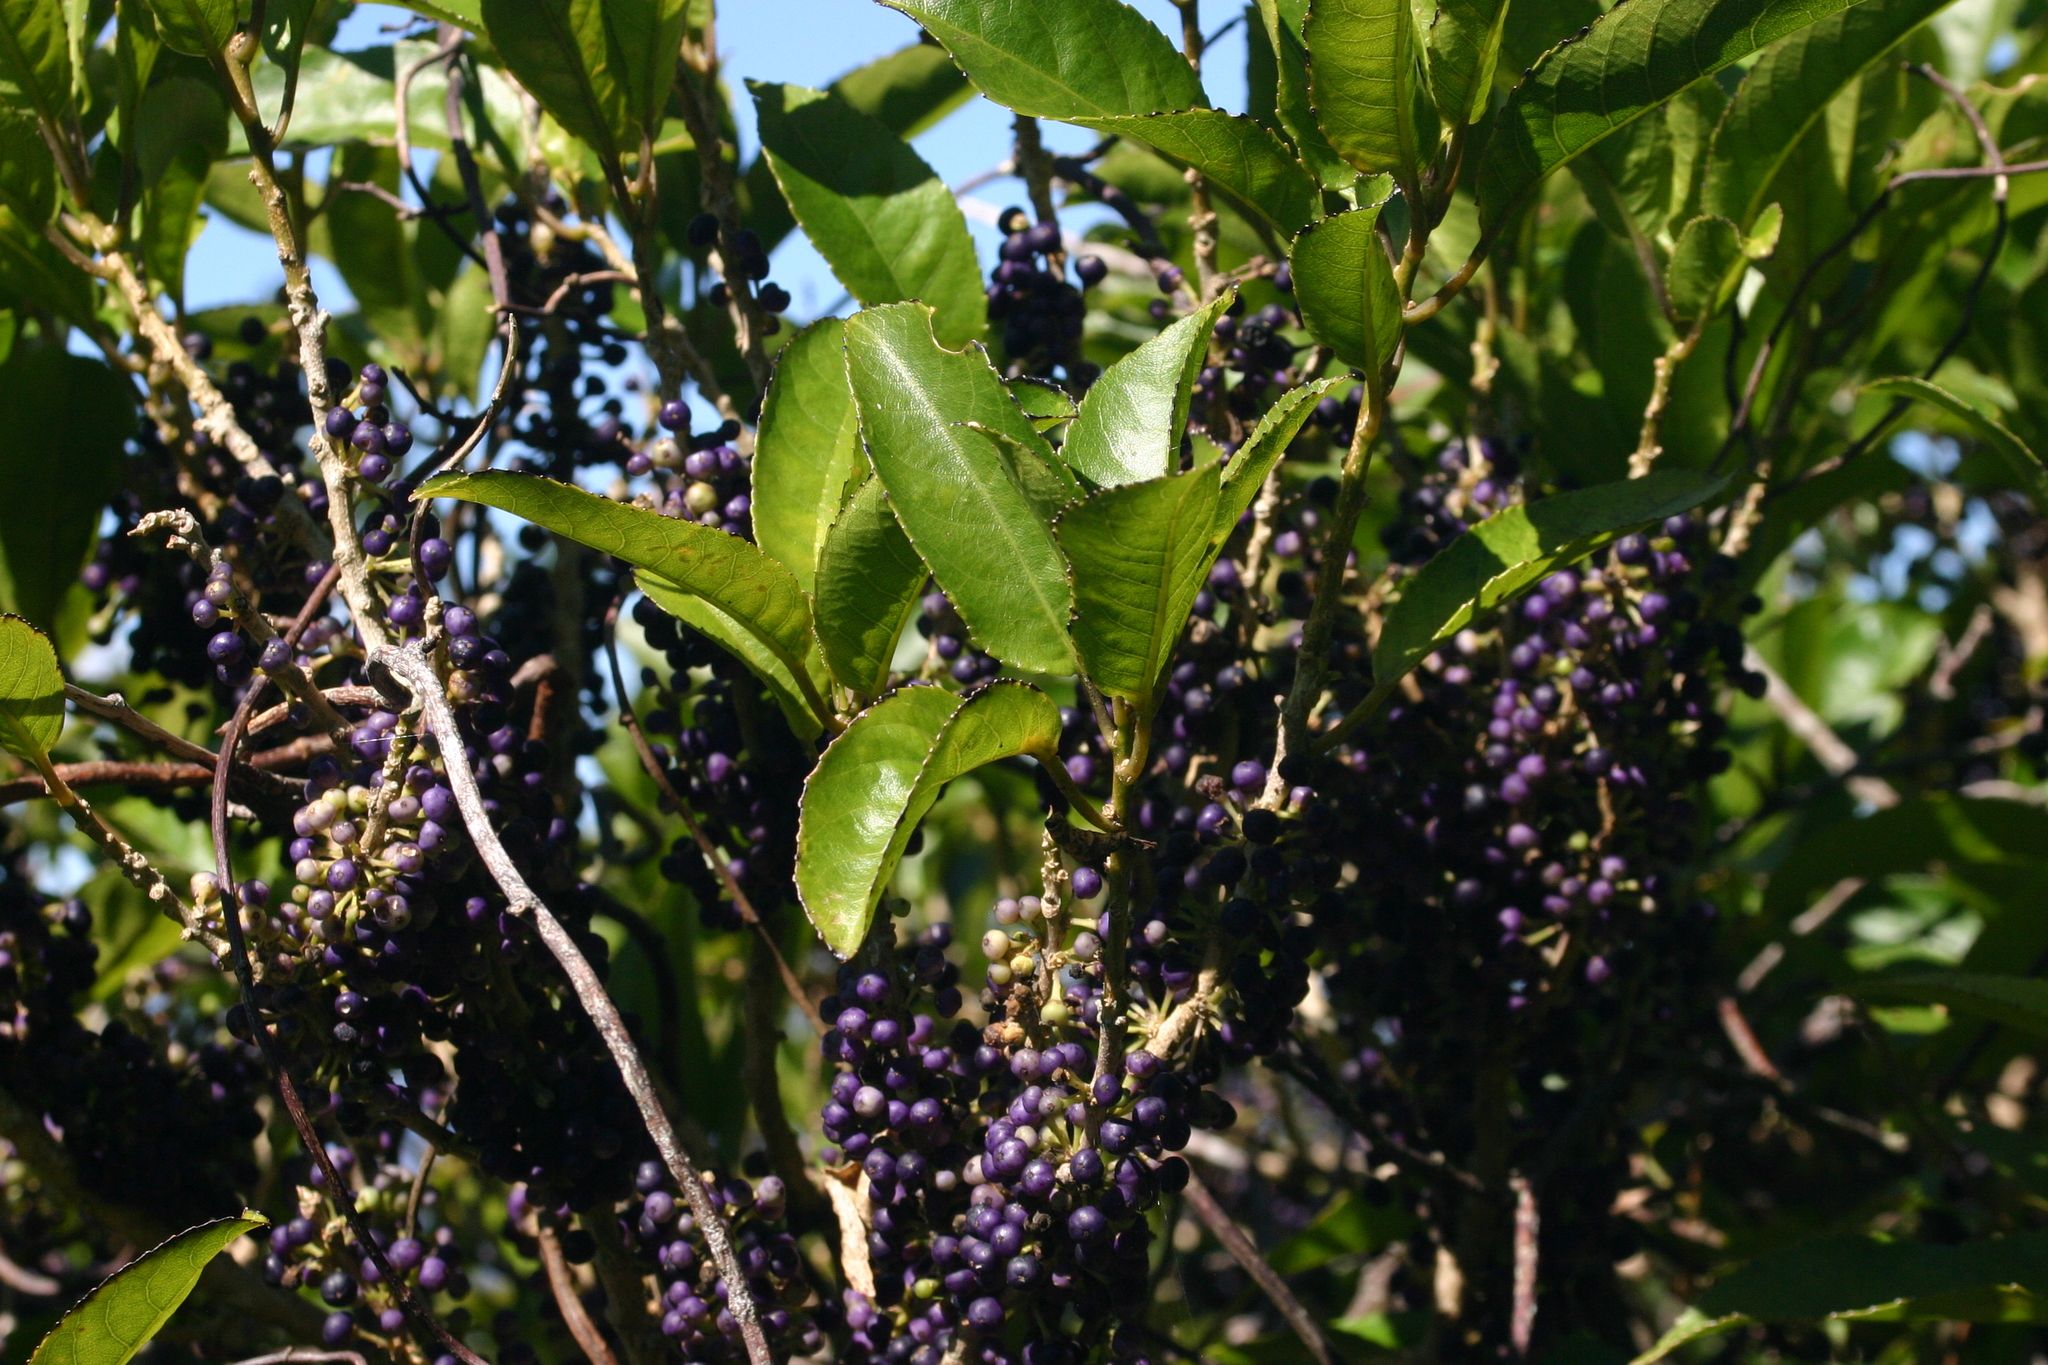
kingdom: Plantae
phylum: Tracheophyta
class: Magnoliopsida
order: Malpighiales
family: Violaceae
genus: Melicytus
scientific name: Melicytus ramiflorus
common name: Mahoe
